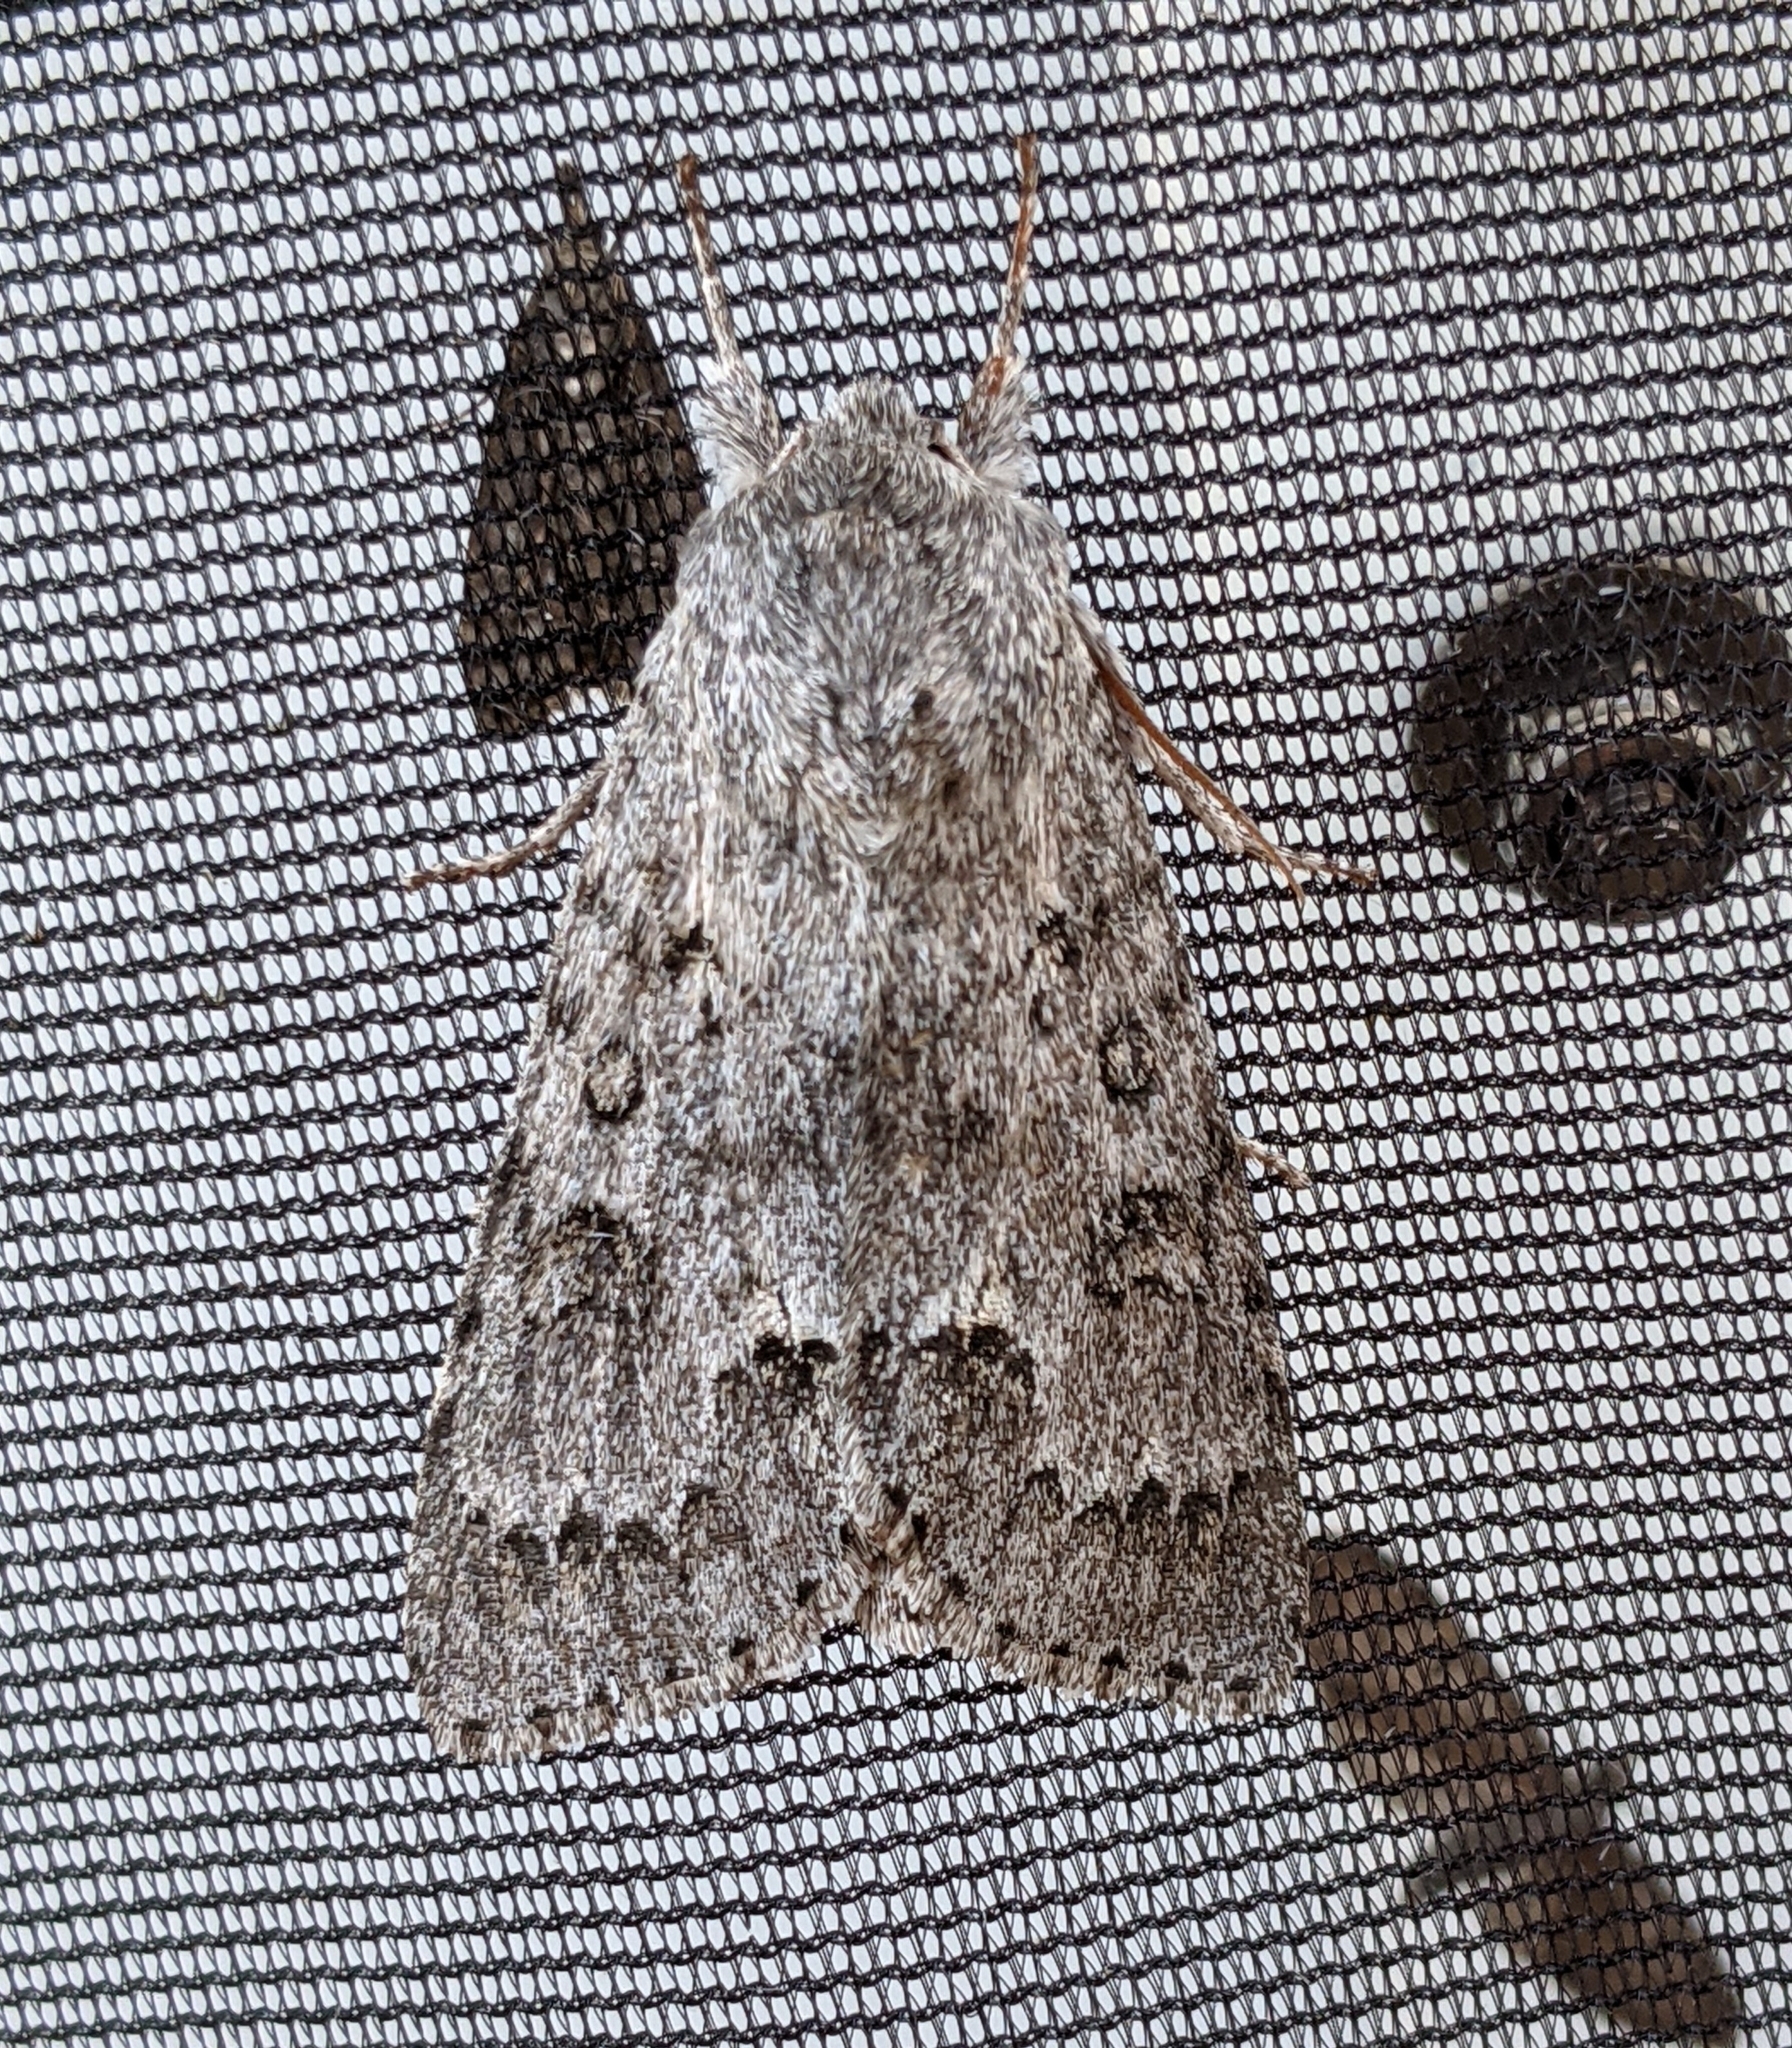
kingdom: Animalia
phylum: Arthropoda
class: Insecta
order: Lepidoptera
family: Noctuidae
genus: Acronicta
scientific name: Acronicta insita
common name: Large gray dagger
